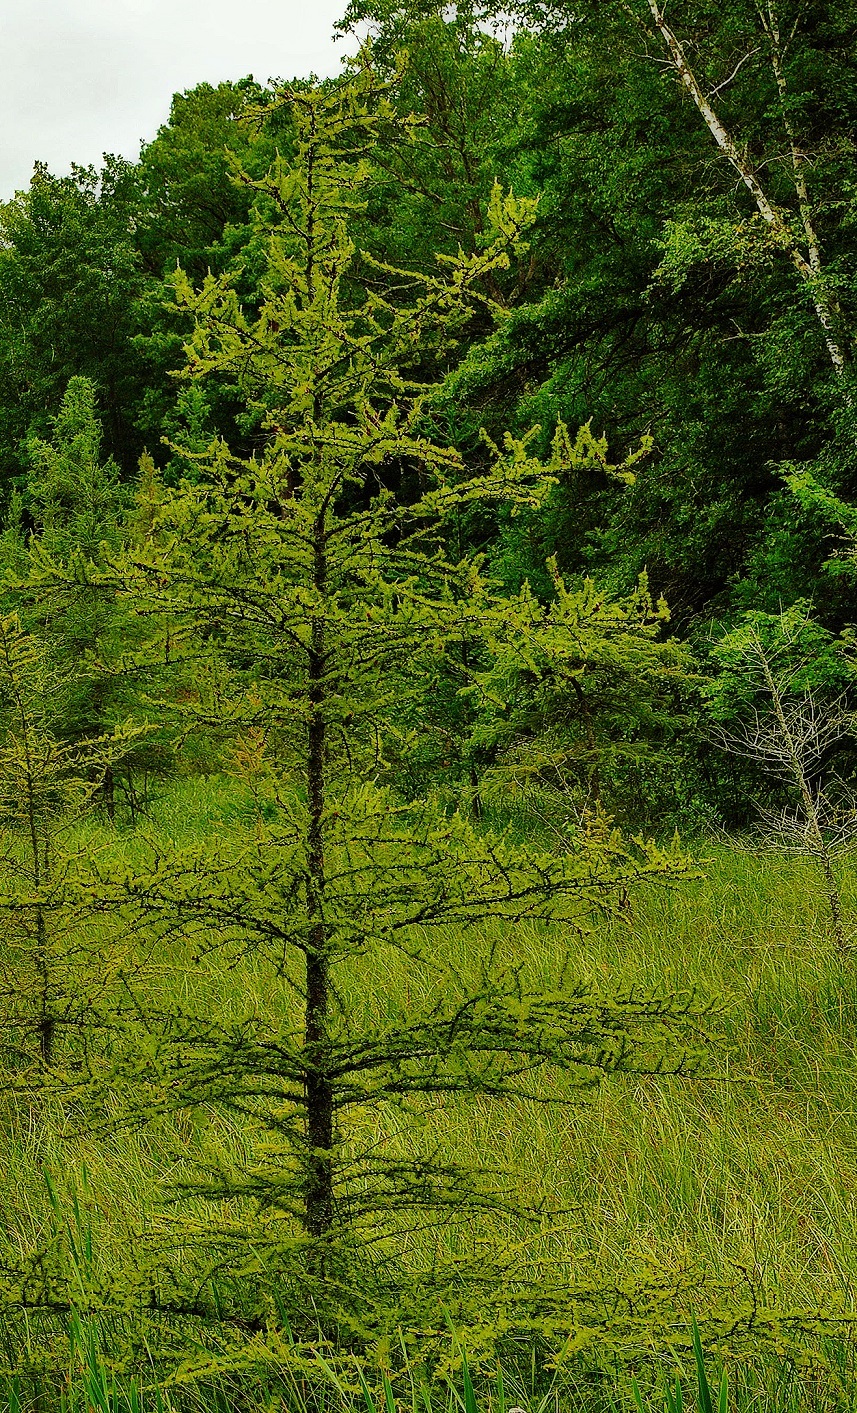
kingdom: Plantae
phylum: Tracheophyta
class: Pinopsida
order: Pinales
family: Pinaceae
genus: Larix
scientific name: Larix laricina
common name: American larch
